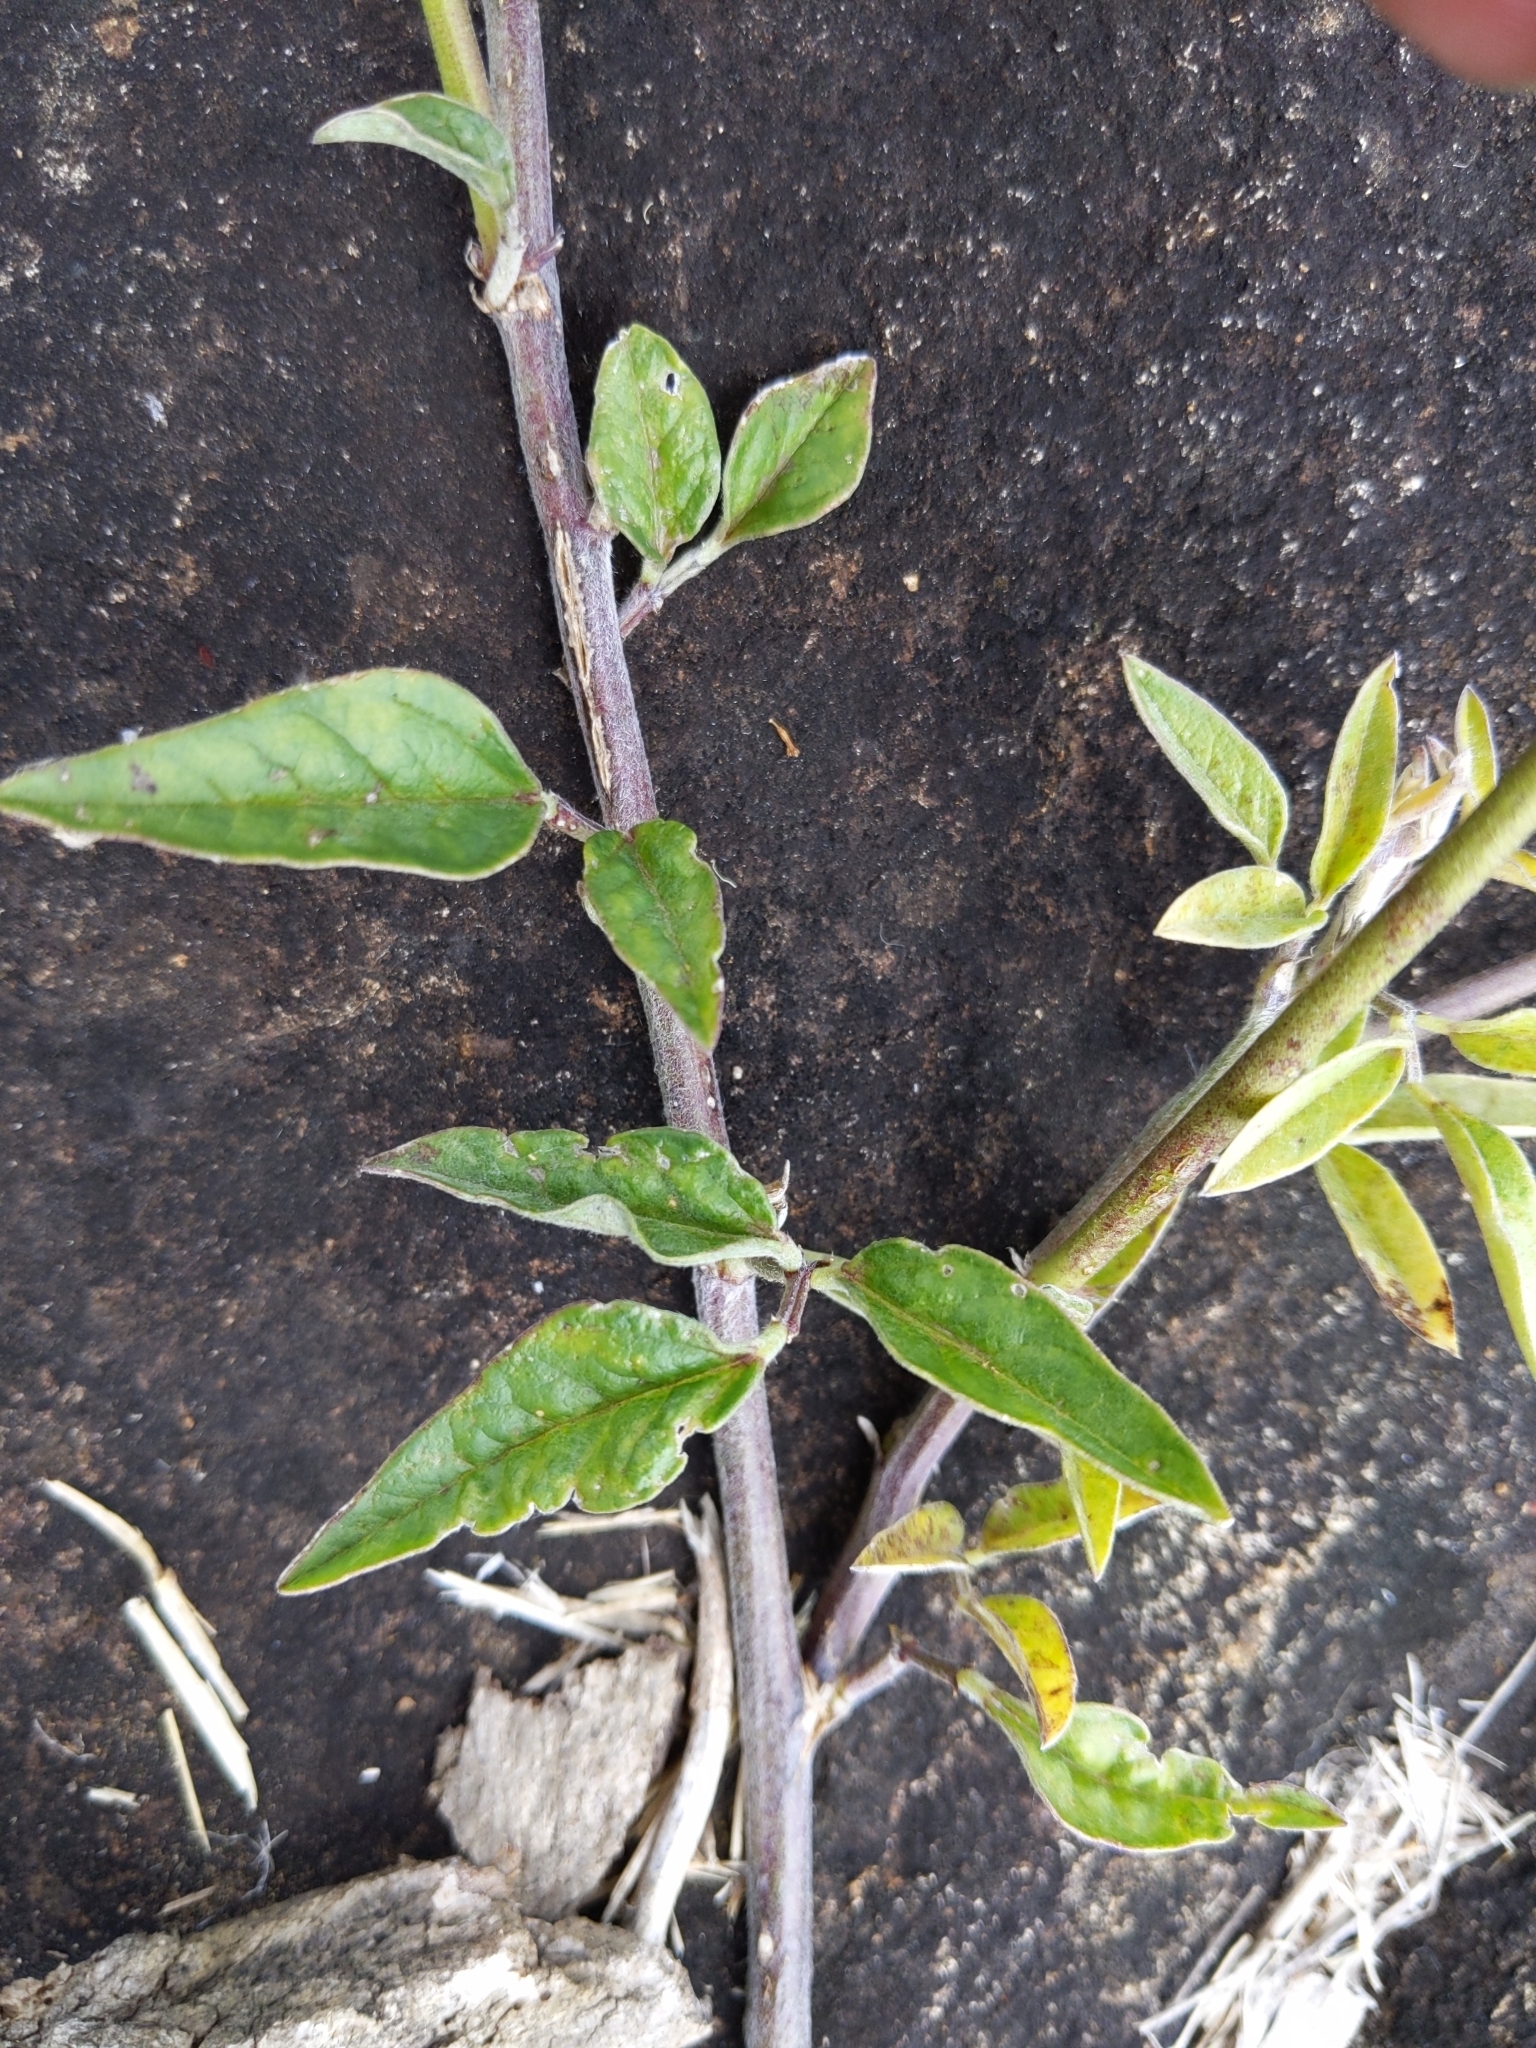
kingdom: Plantae
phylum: Tracheophyta
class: Magnoliopsida
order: Fabales
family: Fabaceae
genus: Macroptilium
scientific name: Macroptilium lathyroides
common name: Wild bushbean
